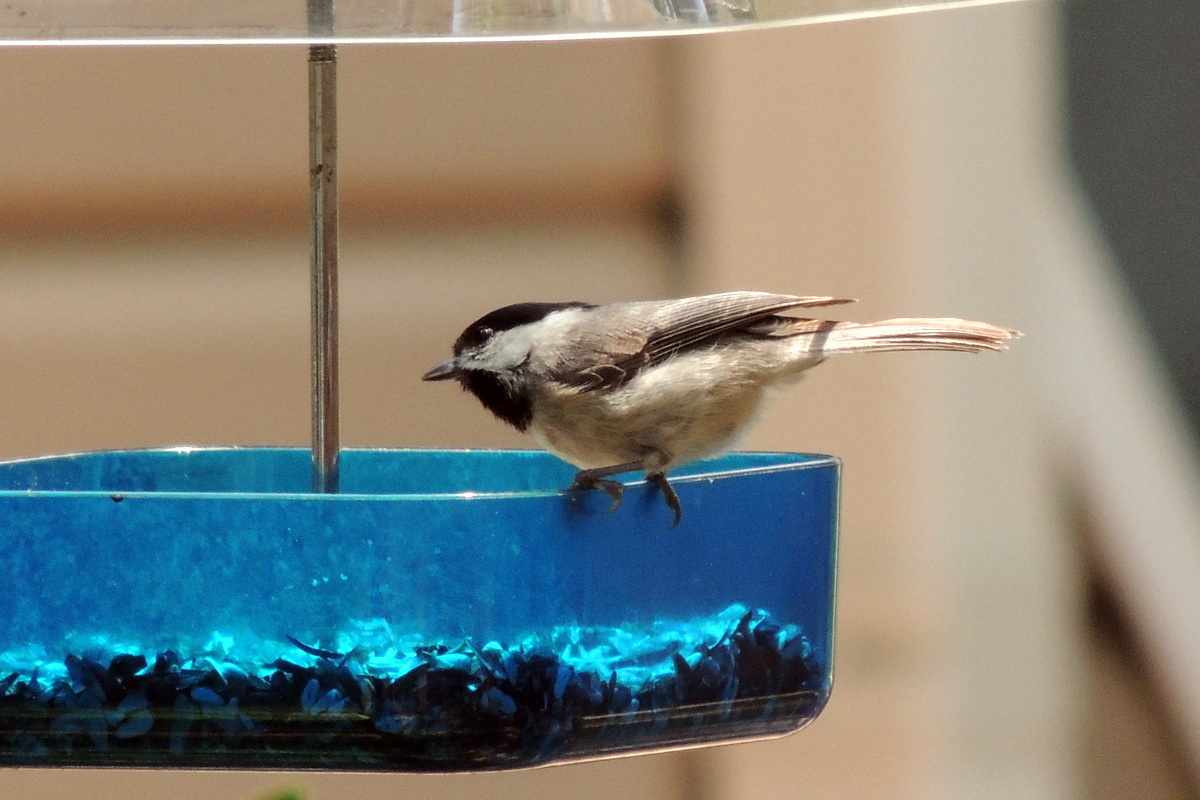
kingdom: Animalia
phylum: Chordata
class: Aves
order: Passeriformes
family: Paridae
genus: Poecile
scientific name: Poecile carolinensis
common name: Carolina chickadee
